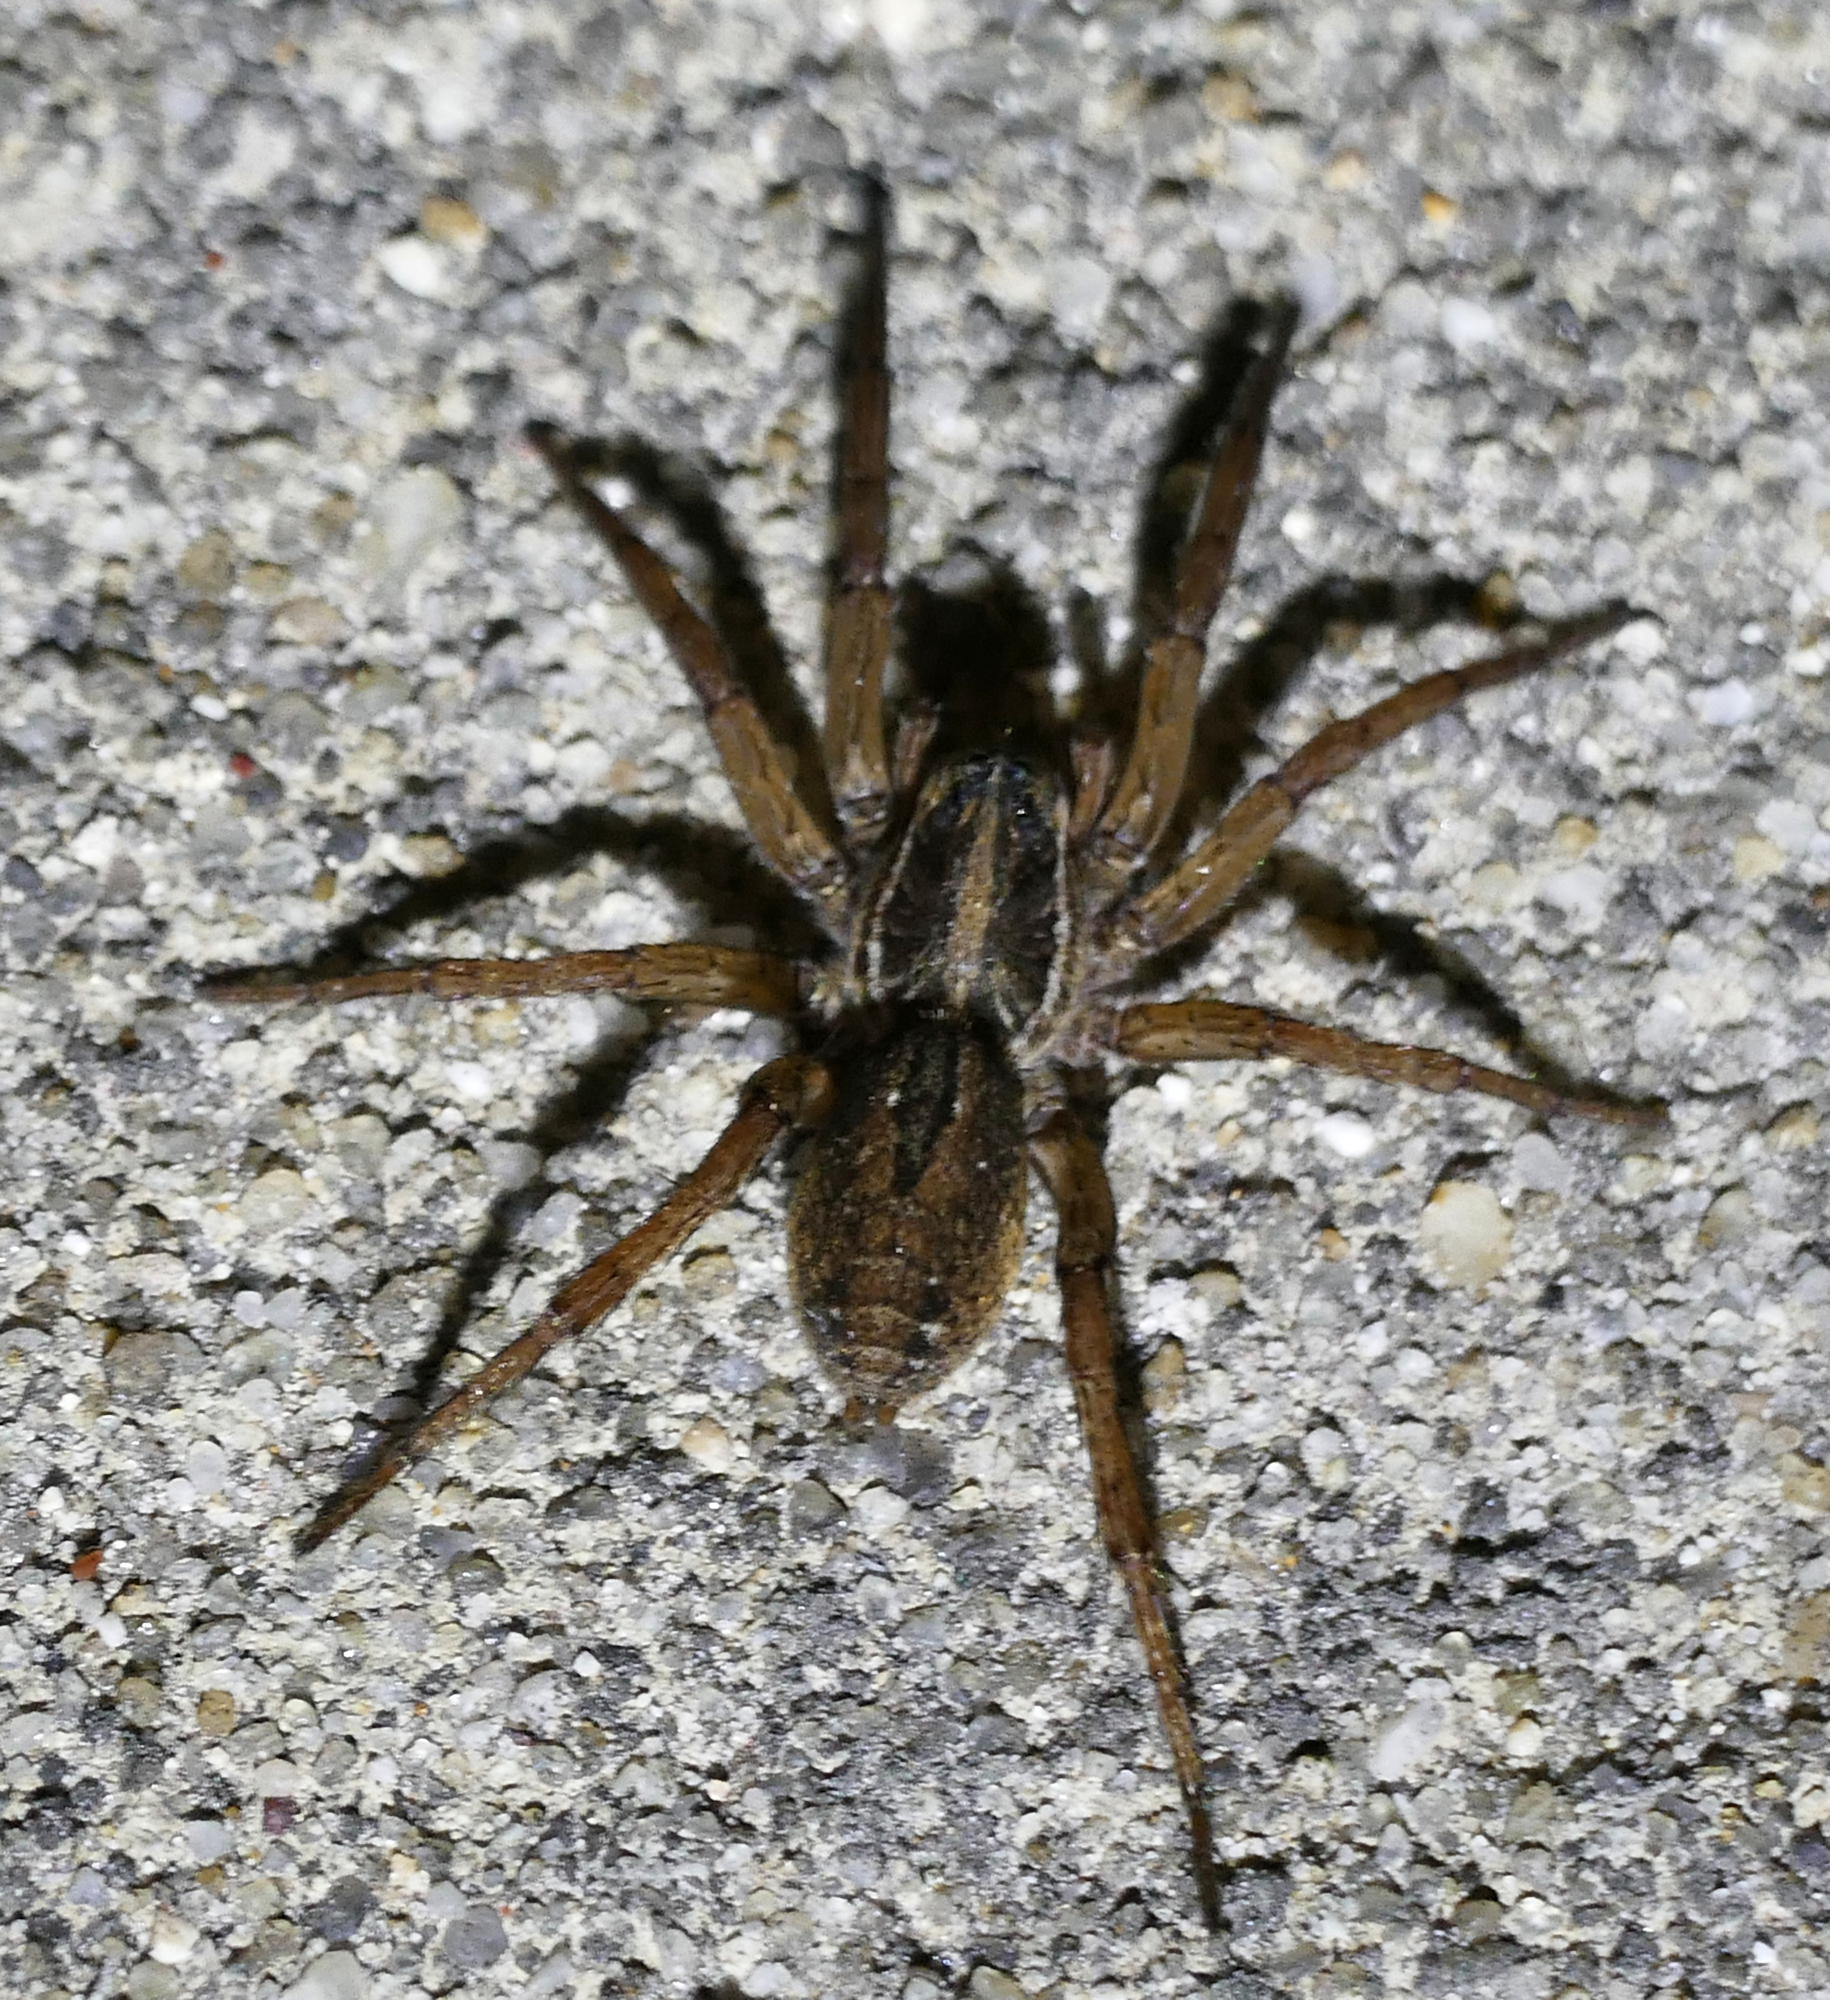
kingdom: Animalia
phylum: Arthropoda
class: Arachnida
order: Araneae
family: Lycosidae
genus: Tigrosa
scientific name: Tigrosa annexa
